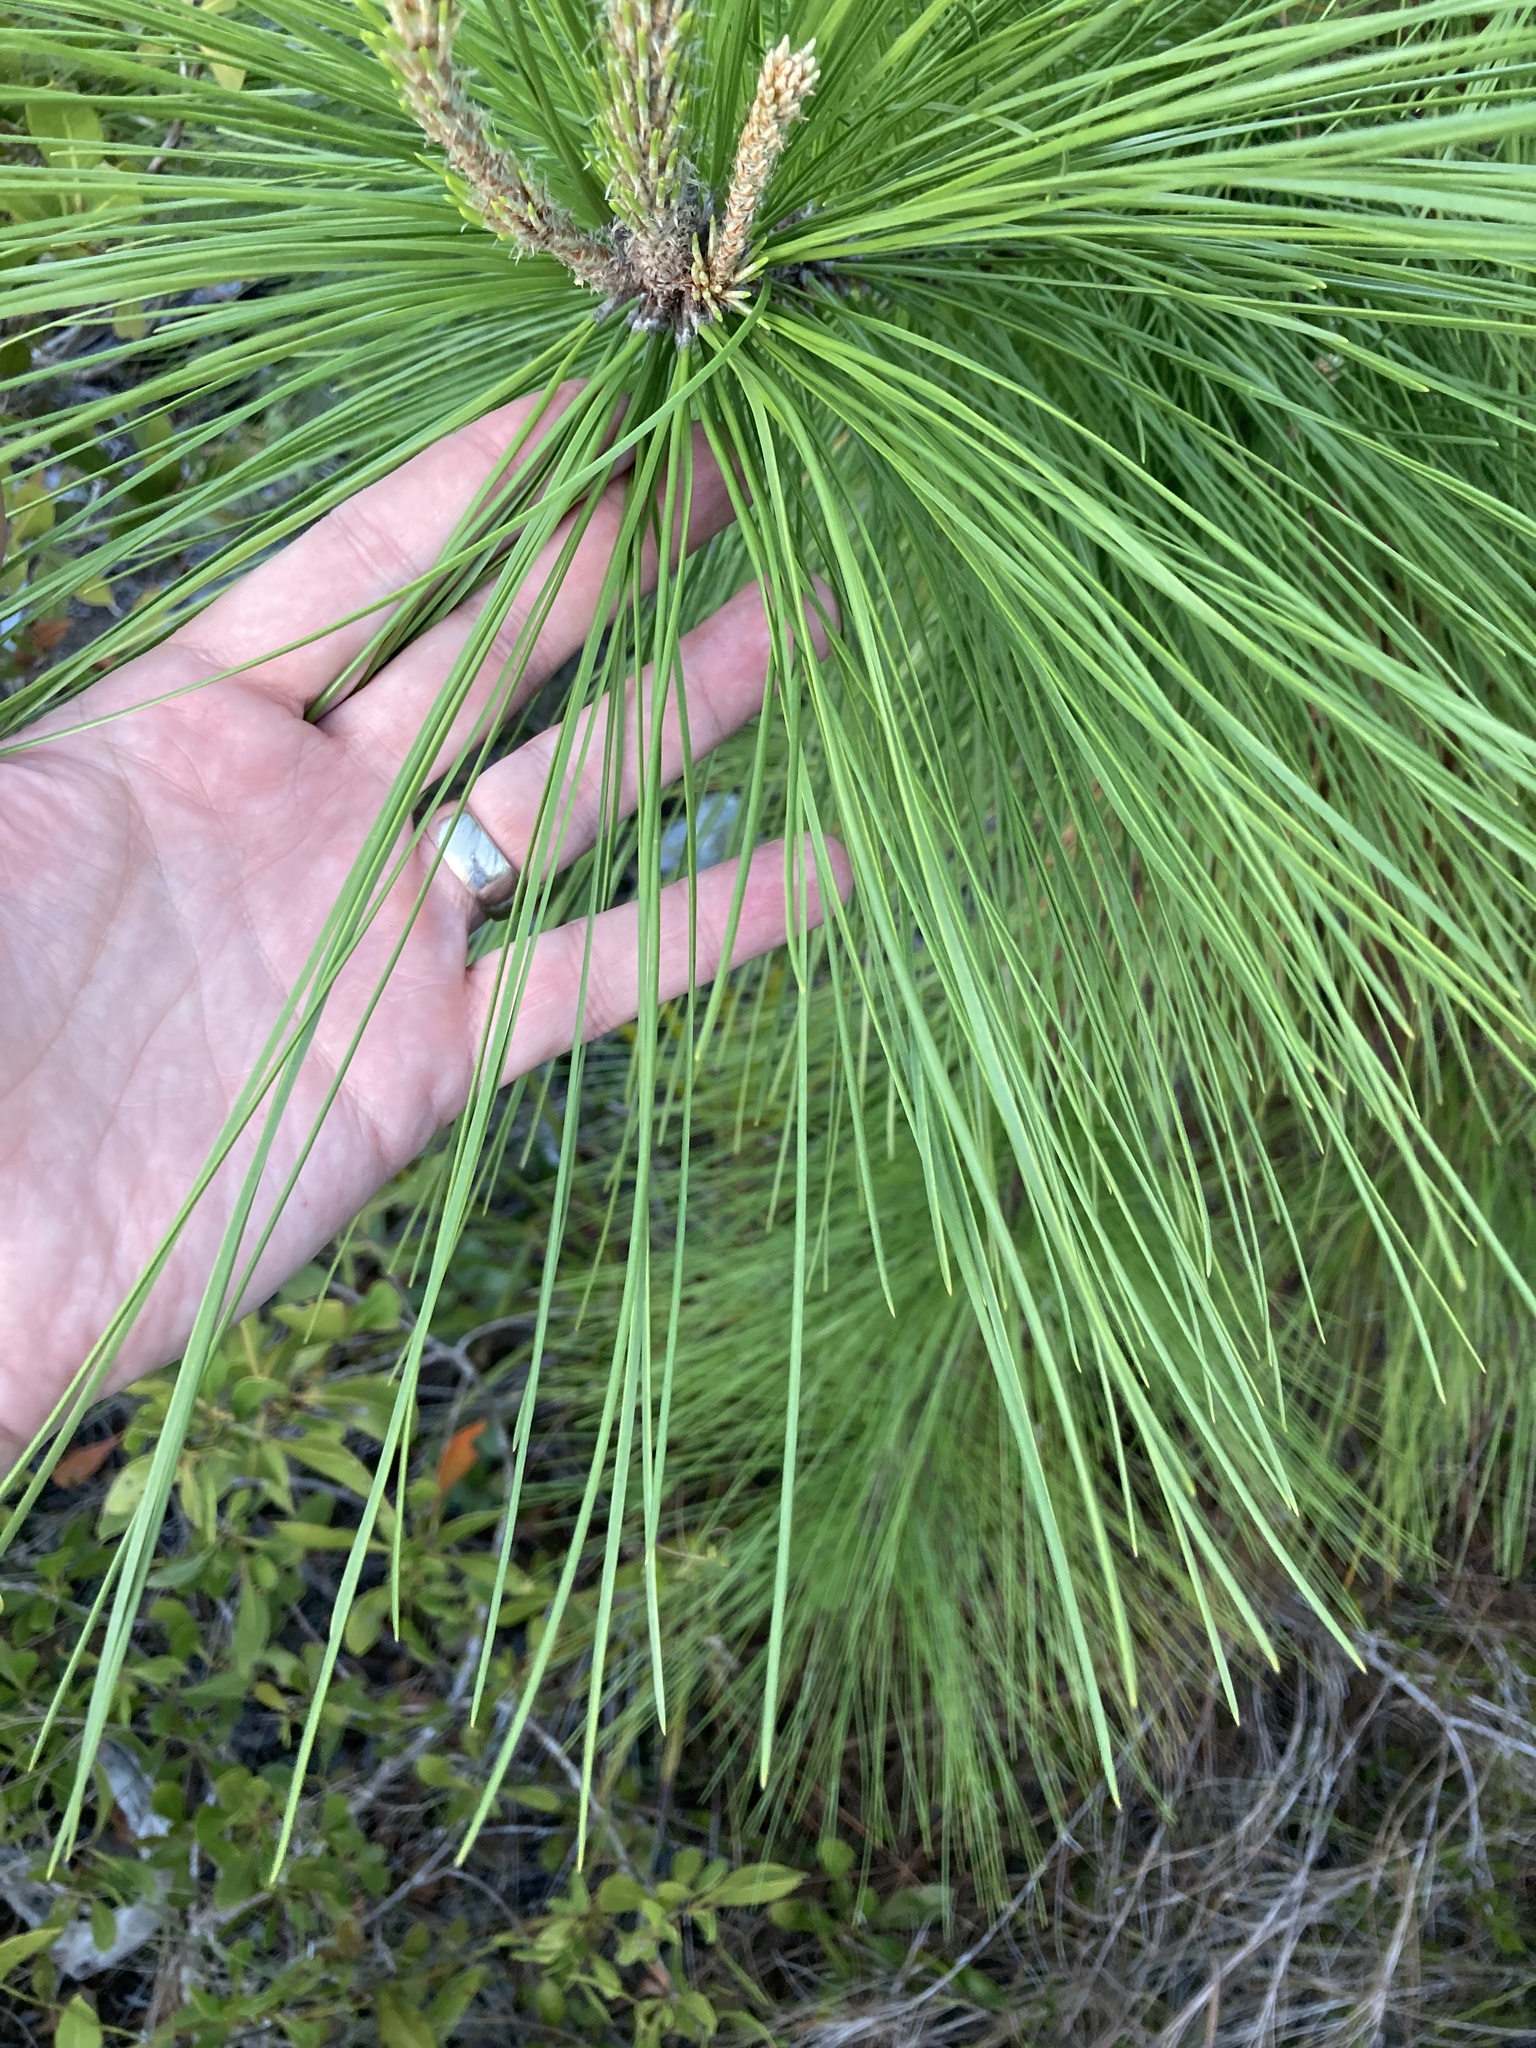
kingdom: Plantae
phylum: Tracheophyta
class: Pinopsida
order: Pinales
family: Pinaceae
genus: Pinus
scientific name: Pinus elliottii
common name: Slash pine
